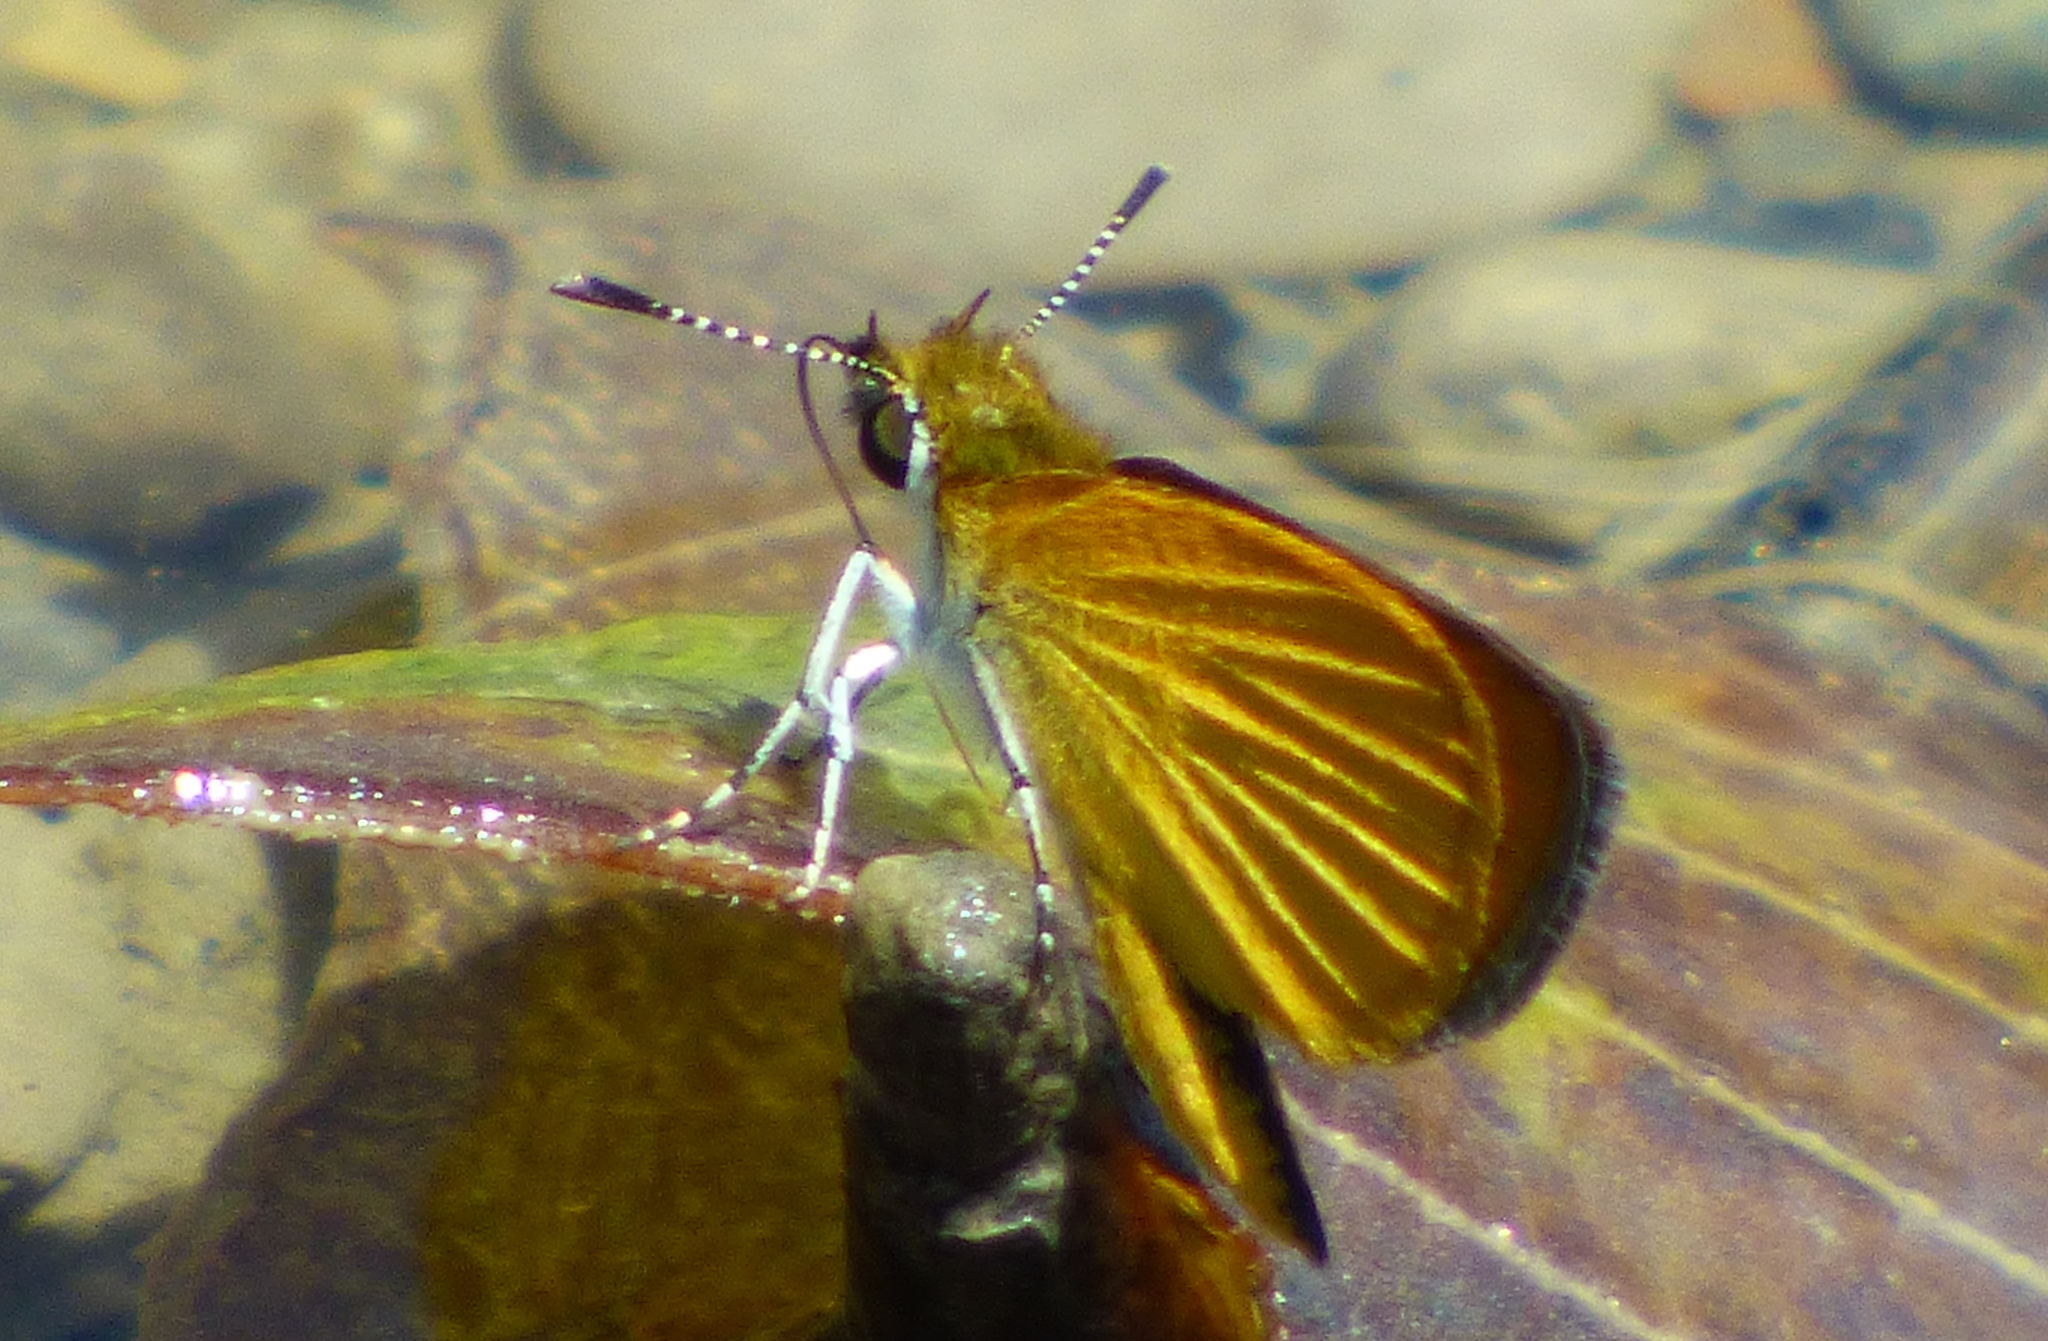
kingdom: Animalia
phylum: Arthropoda
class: Insecta
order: Lepidoptera
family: Hesperiidae
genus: Ancyloxypha
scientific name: Ancyloxypha numitor
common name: Least skipper
